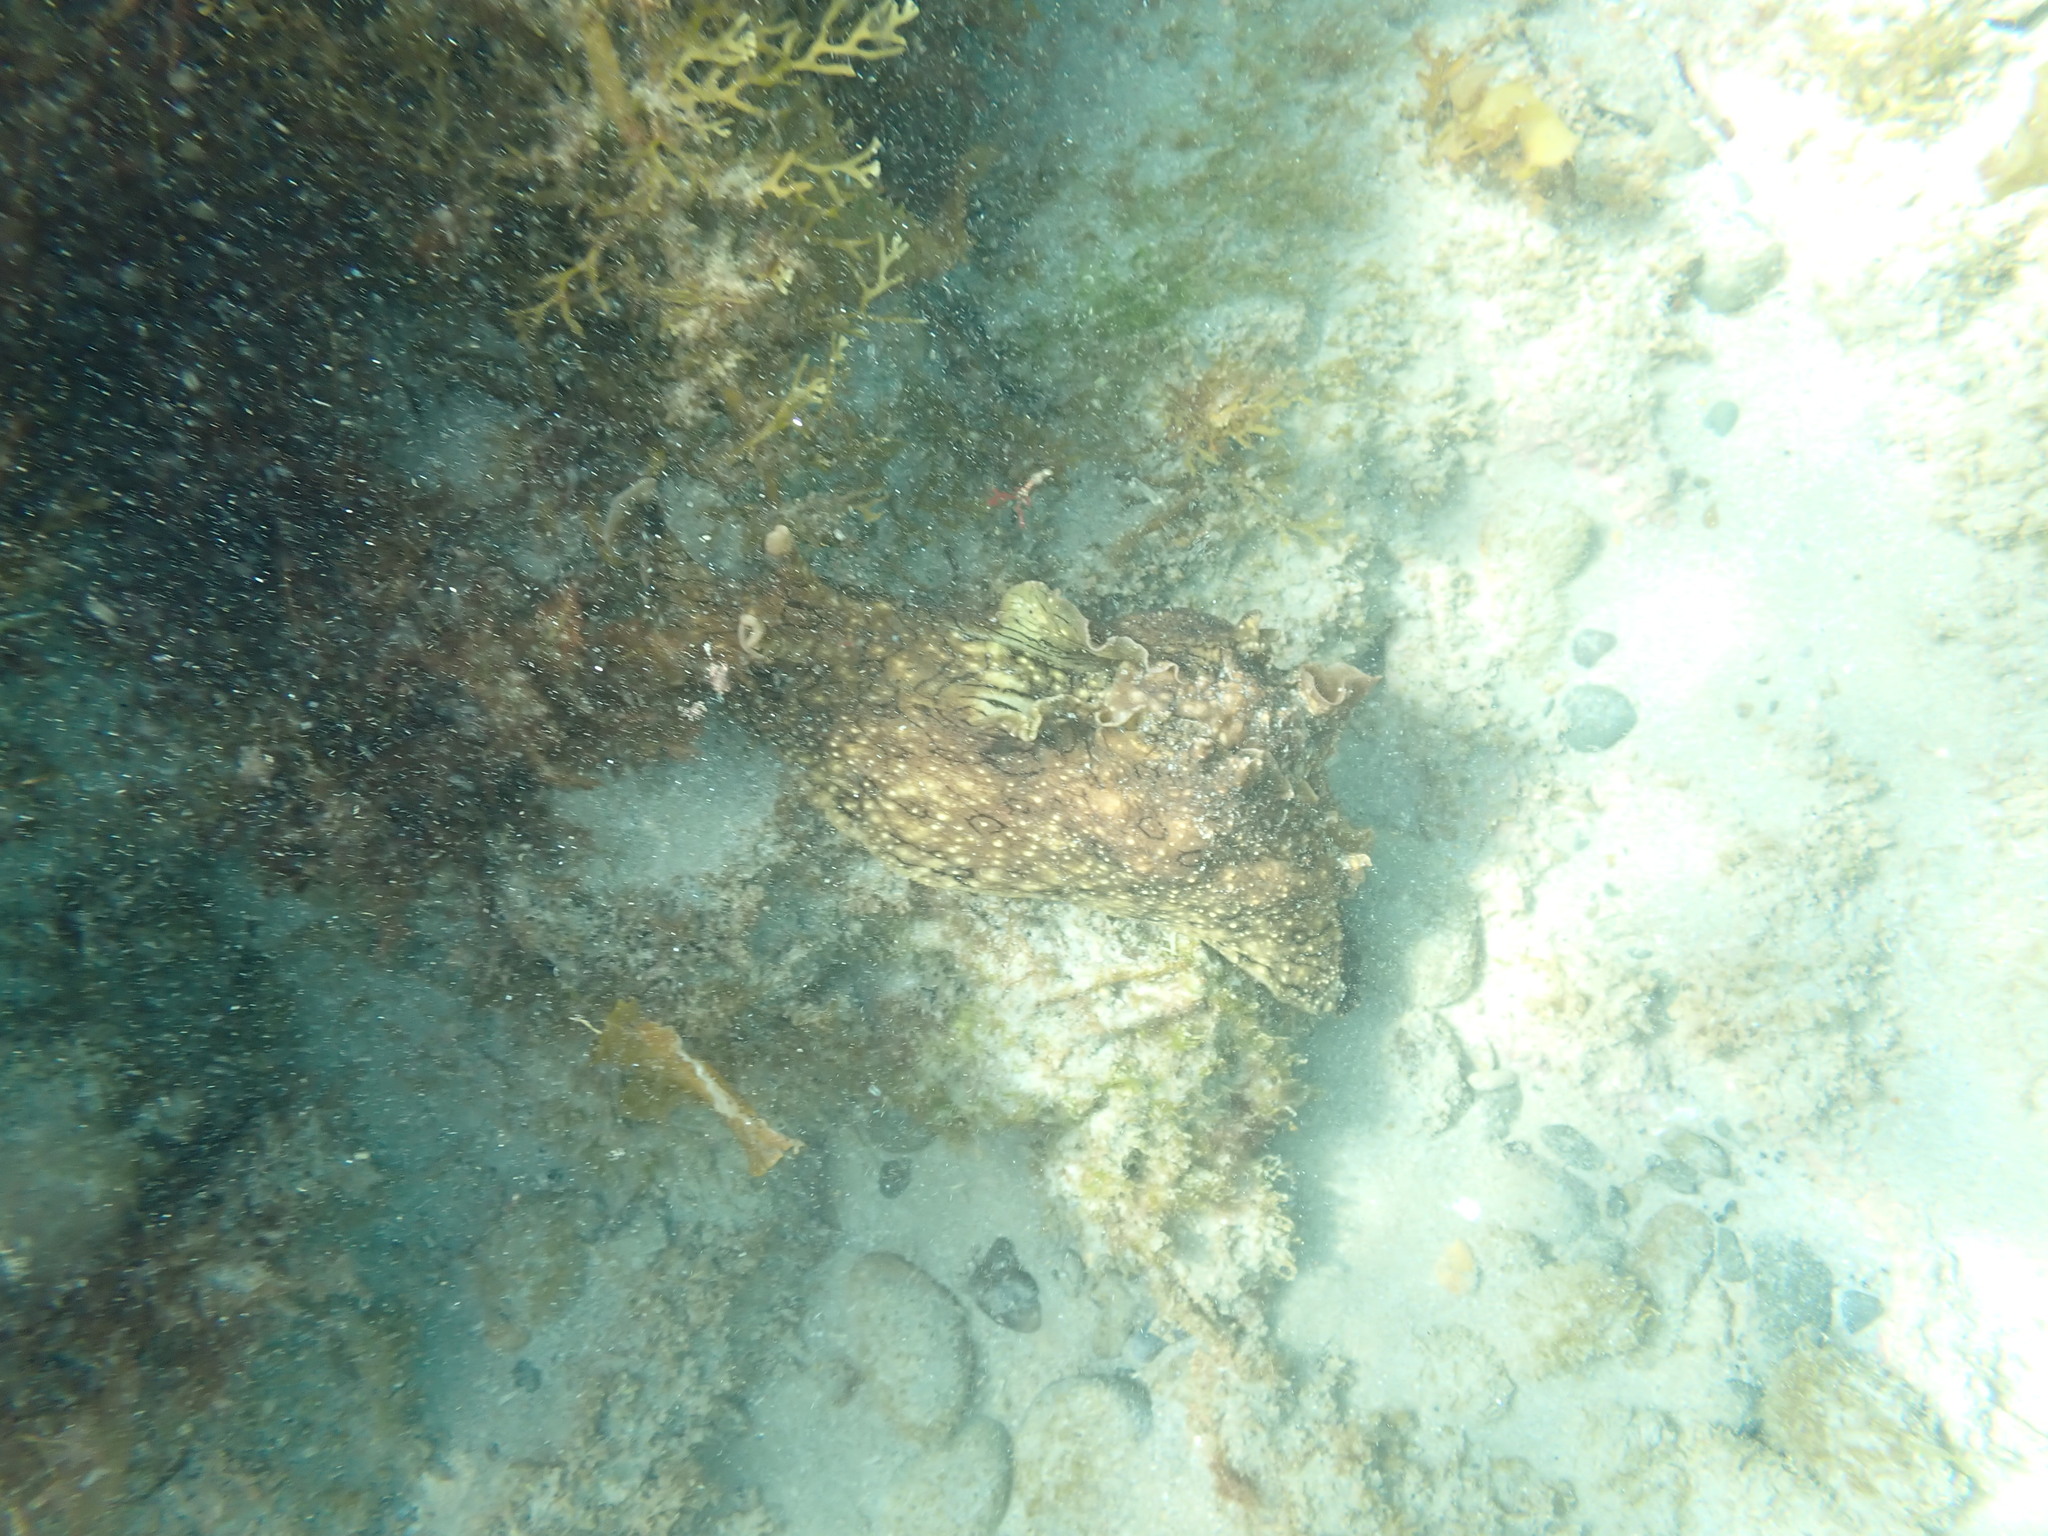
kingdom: Animalia
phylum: Mollusca
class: Gastropoda
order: Aplysiida
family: Aplysiidae
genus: Aplysia
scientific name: Aplysia argus
